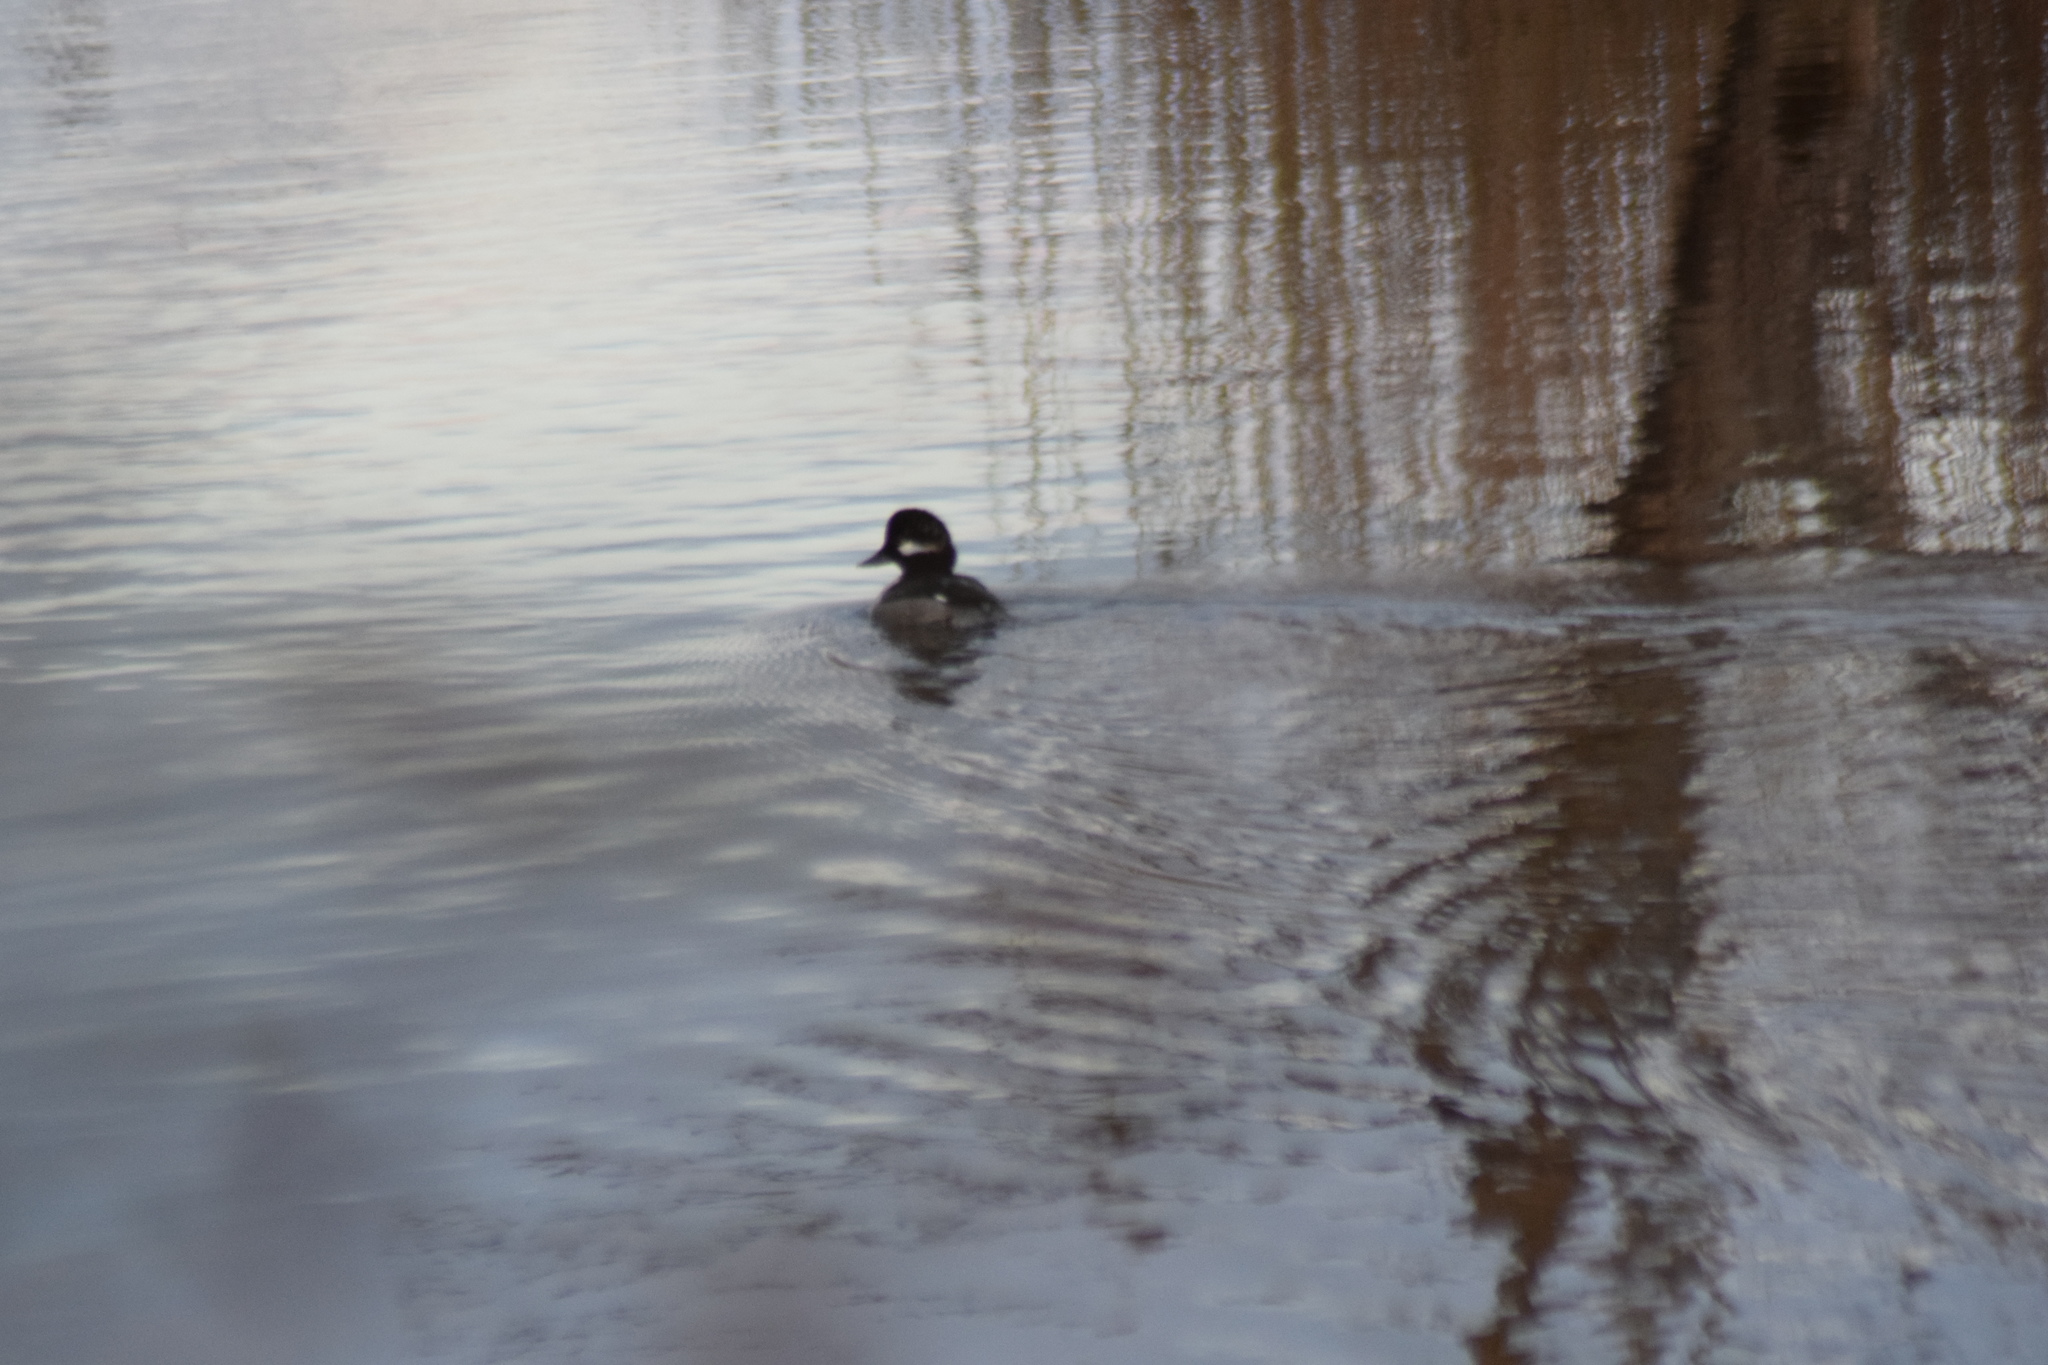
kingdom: Animalia
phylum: Chordata
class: Aves
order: Anseriformes
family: Anatidae
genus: Bucephala
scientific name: Bucephala albeola
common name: Bufflehead
